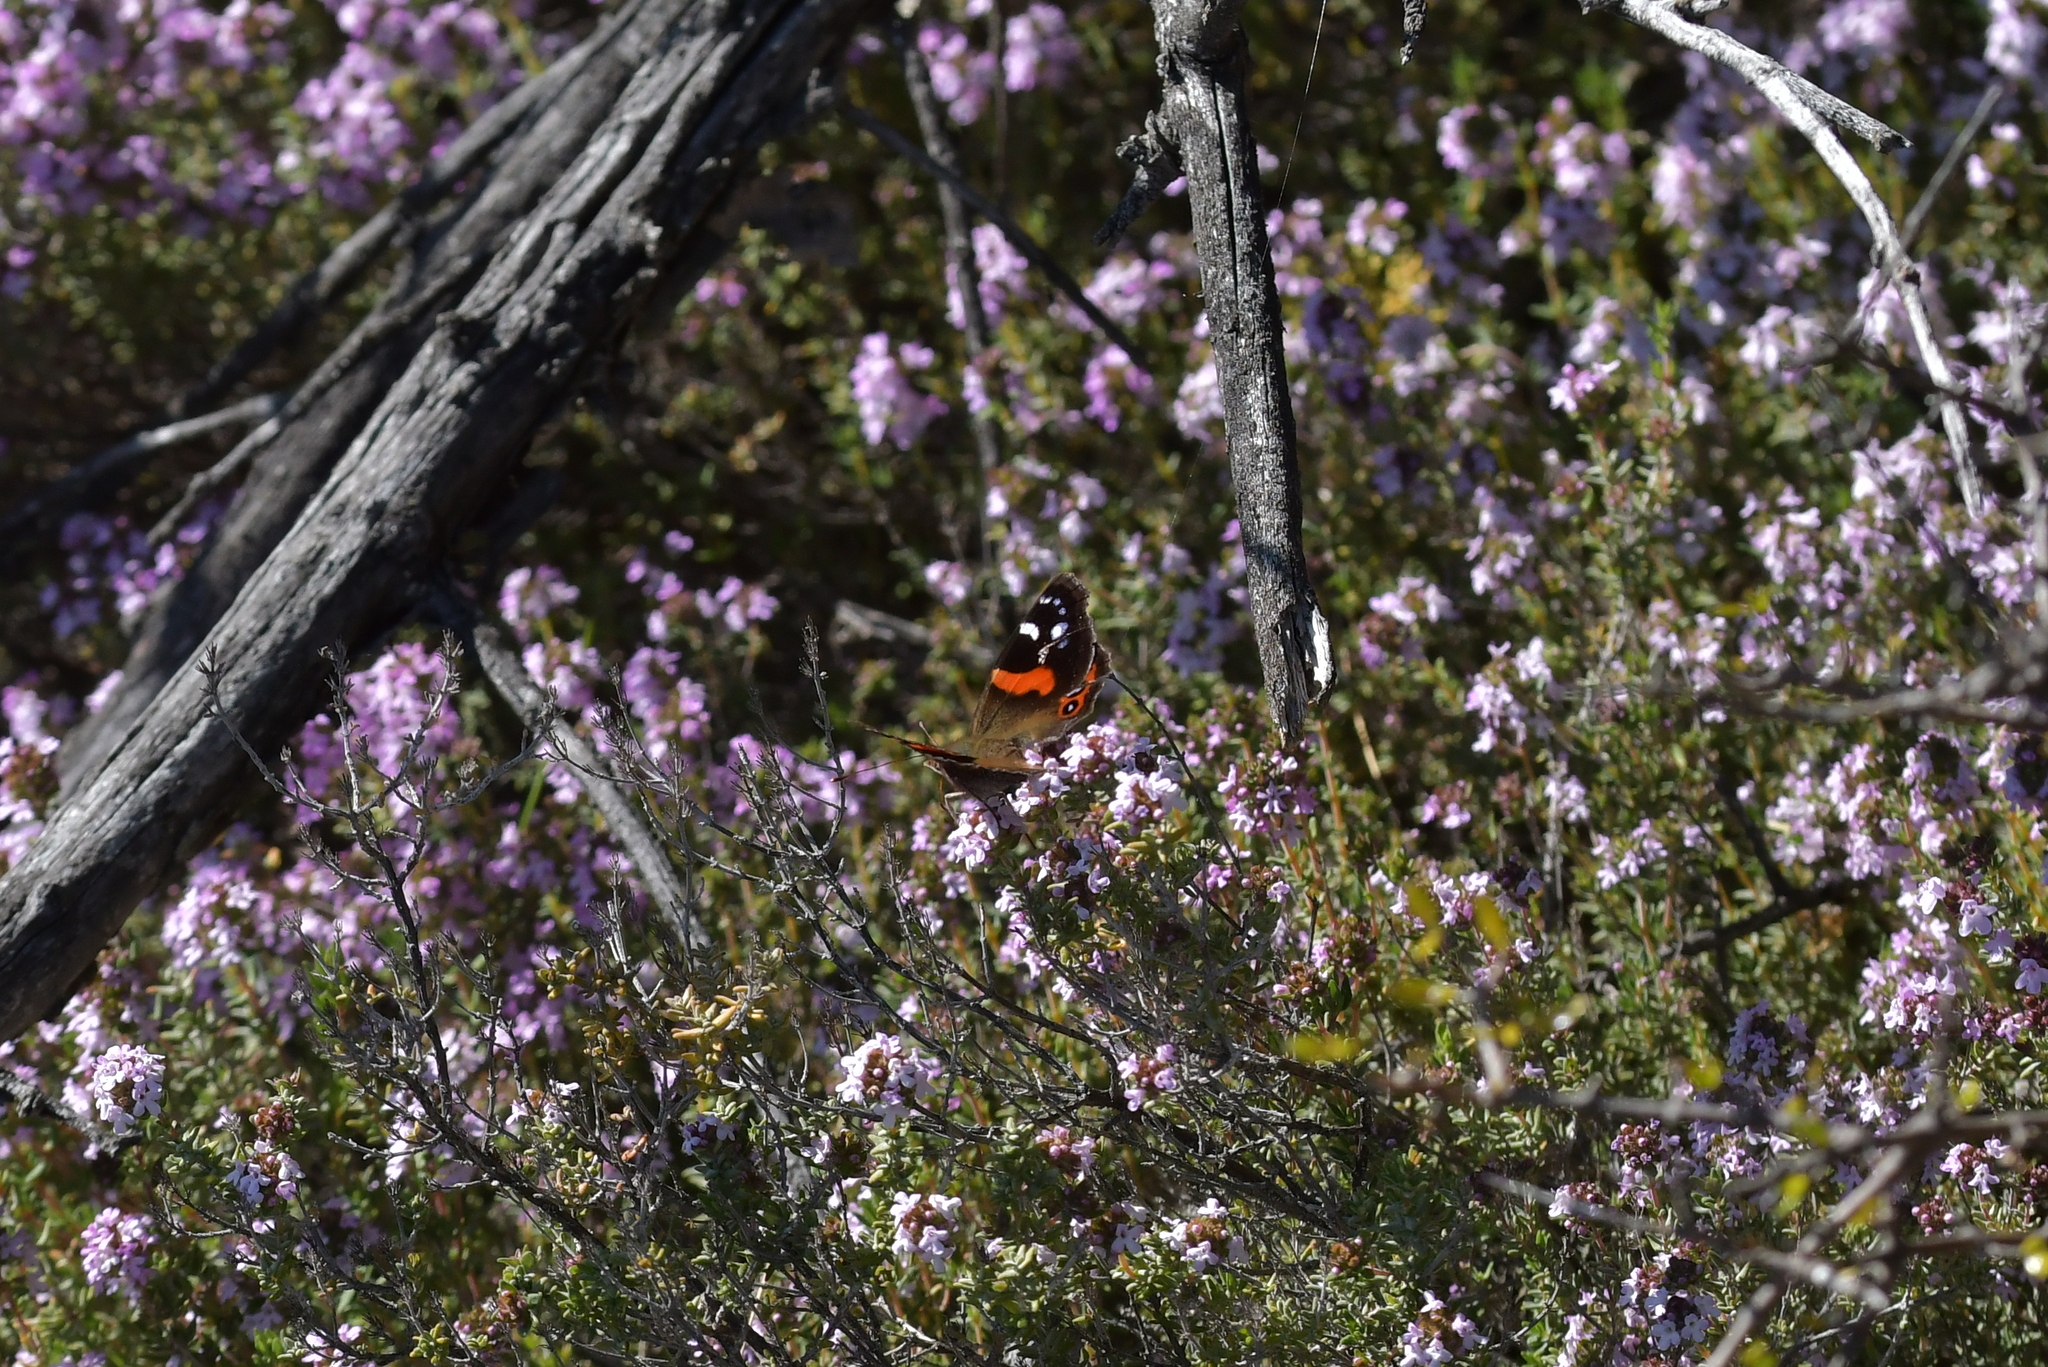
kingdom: Animalia
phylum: Arthropoda
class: Insecta
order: Lepidoptera
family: Nymphalidae
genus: Vanessa
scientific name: Vanessa gonerilla
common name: New zealand red admiral
